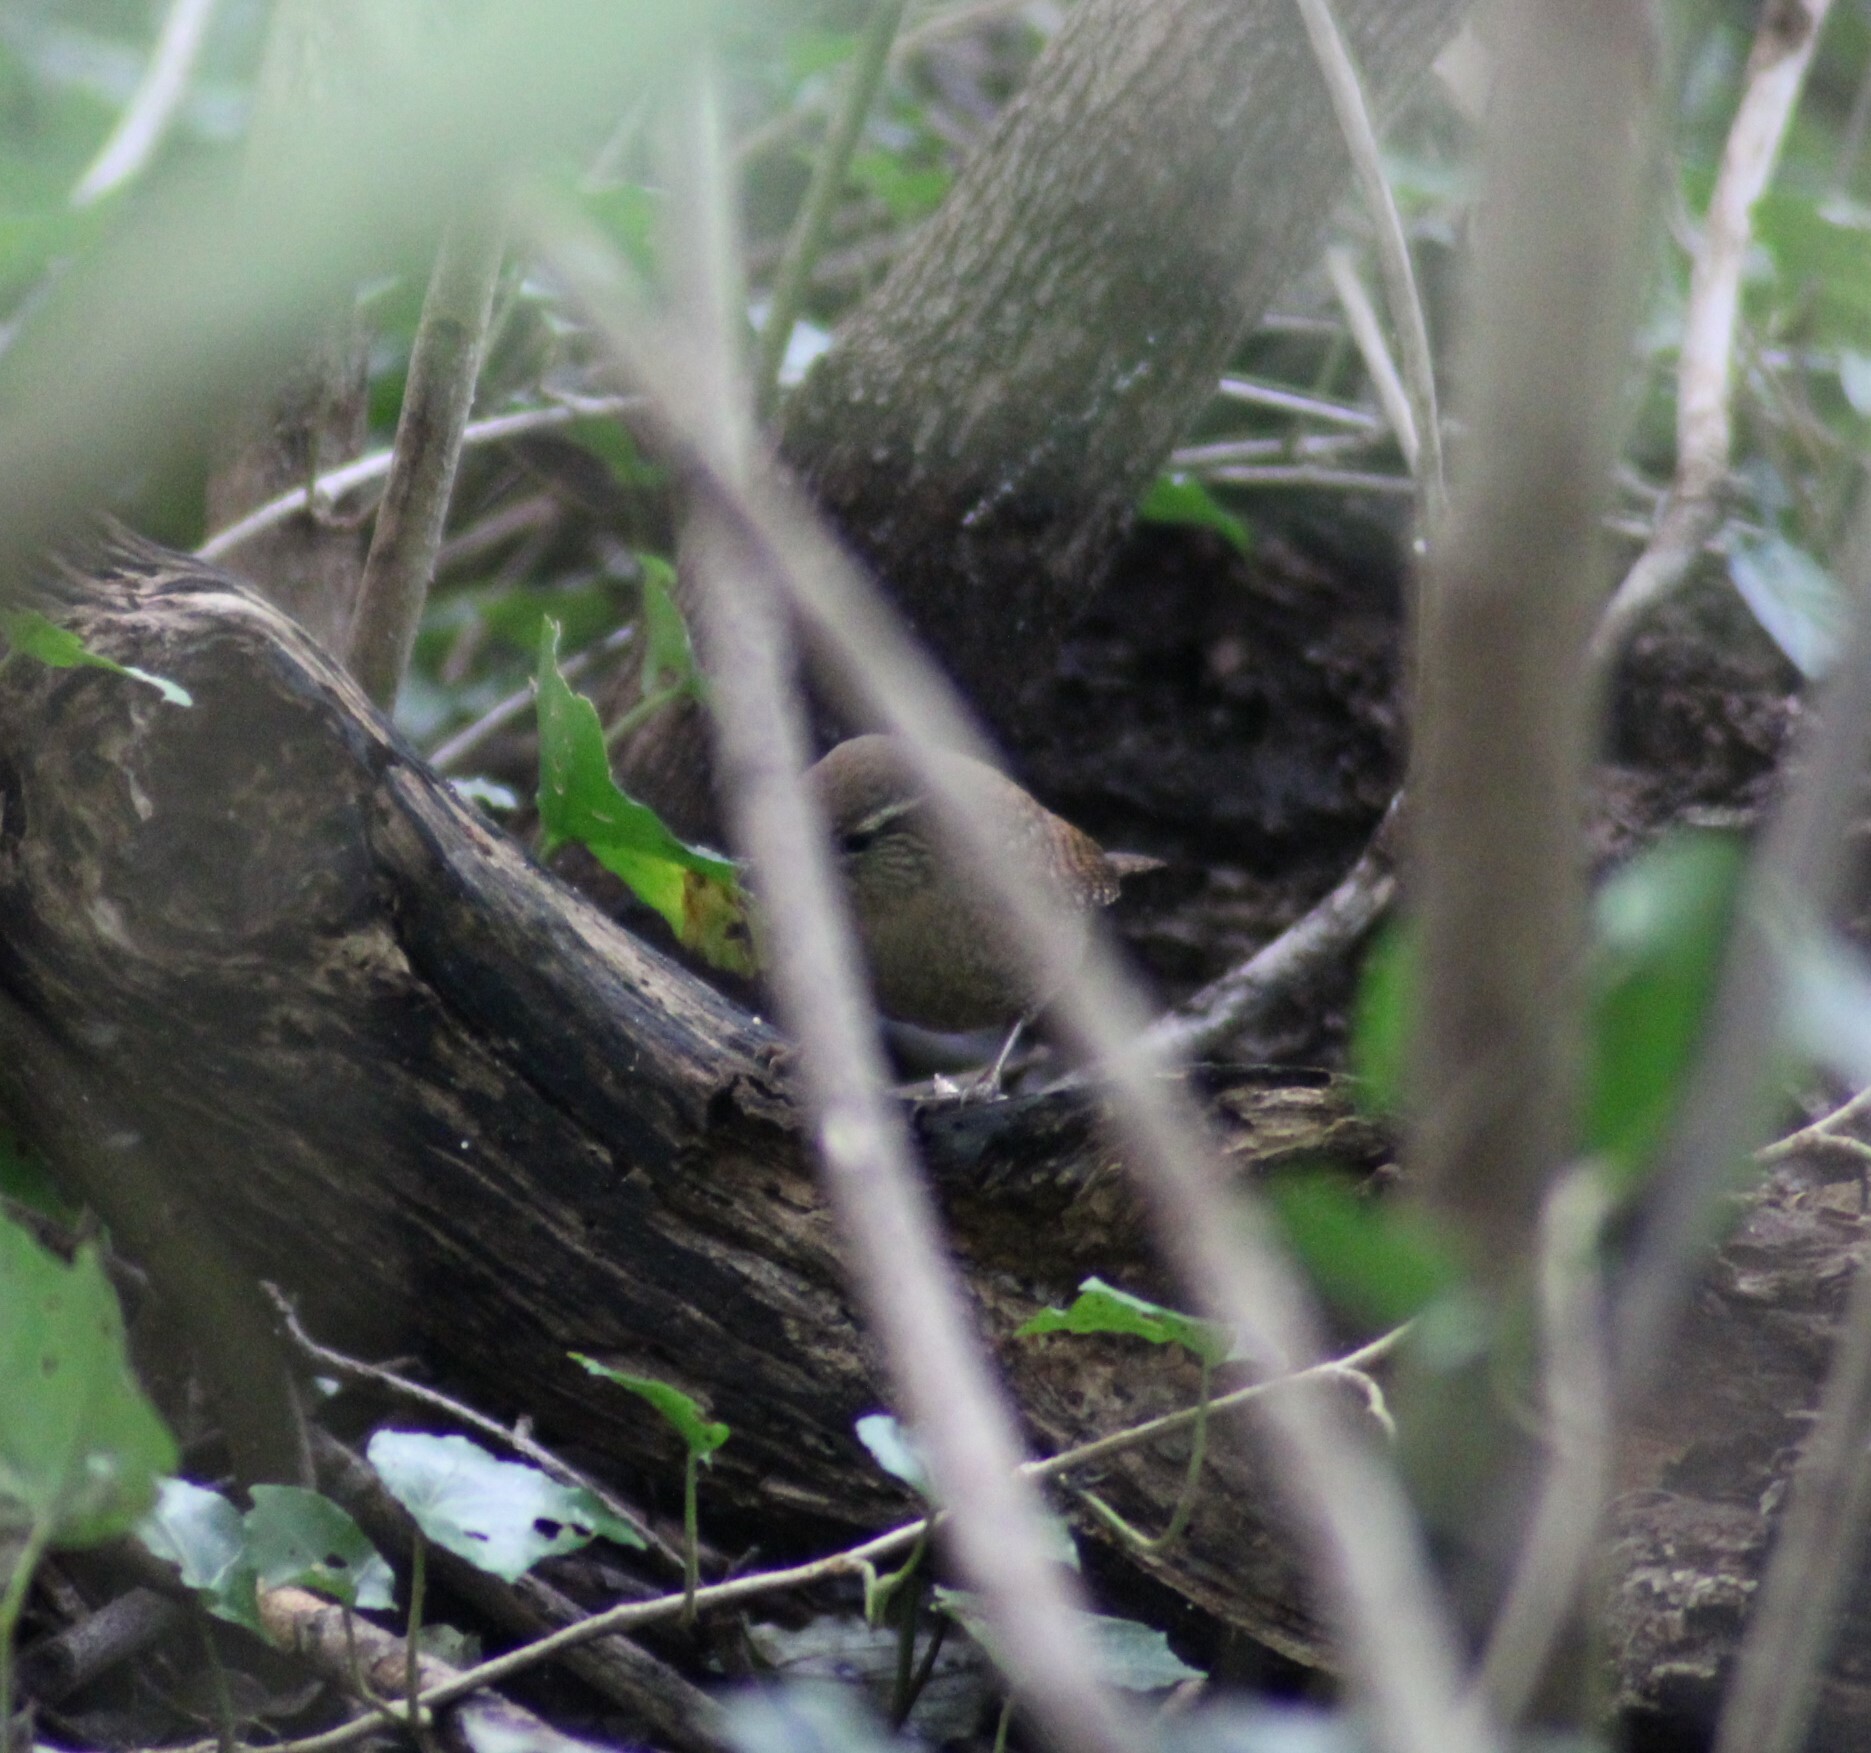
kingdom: Animalia
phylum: Chordata
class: Aves
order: Passeriformes
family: Troglodytidae
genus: Troglodytes
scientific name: Troglodytes troglodytes
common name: Eurasian wren
